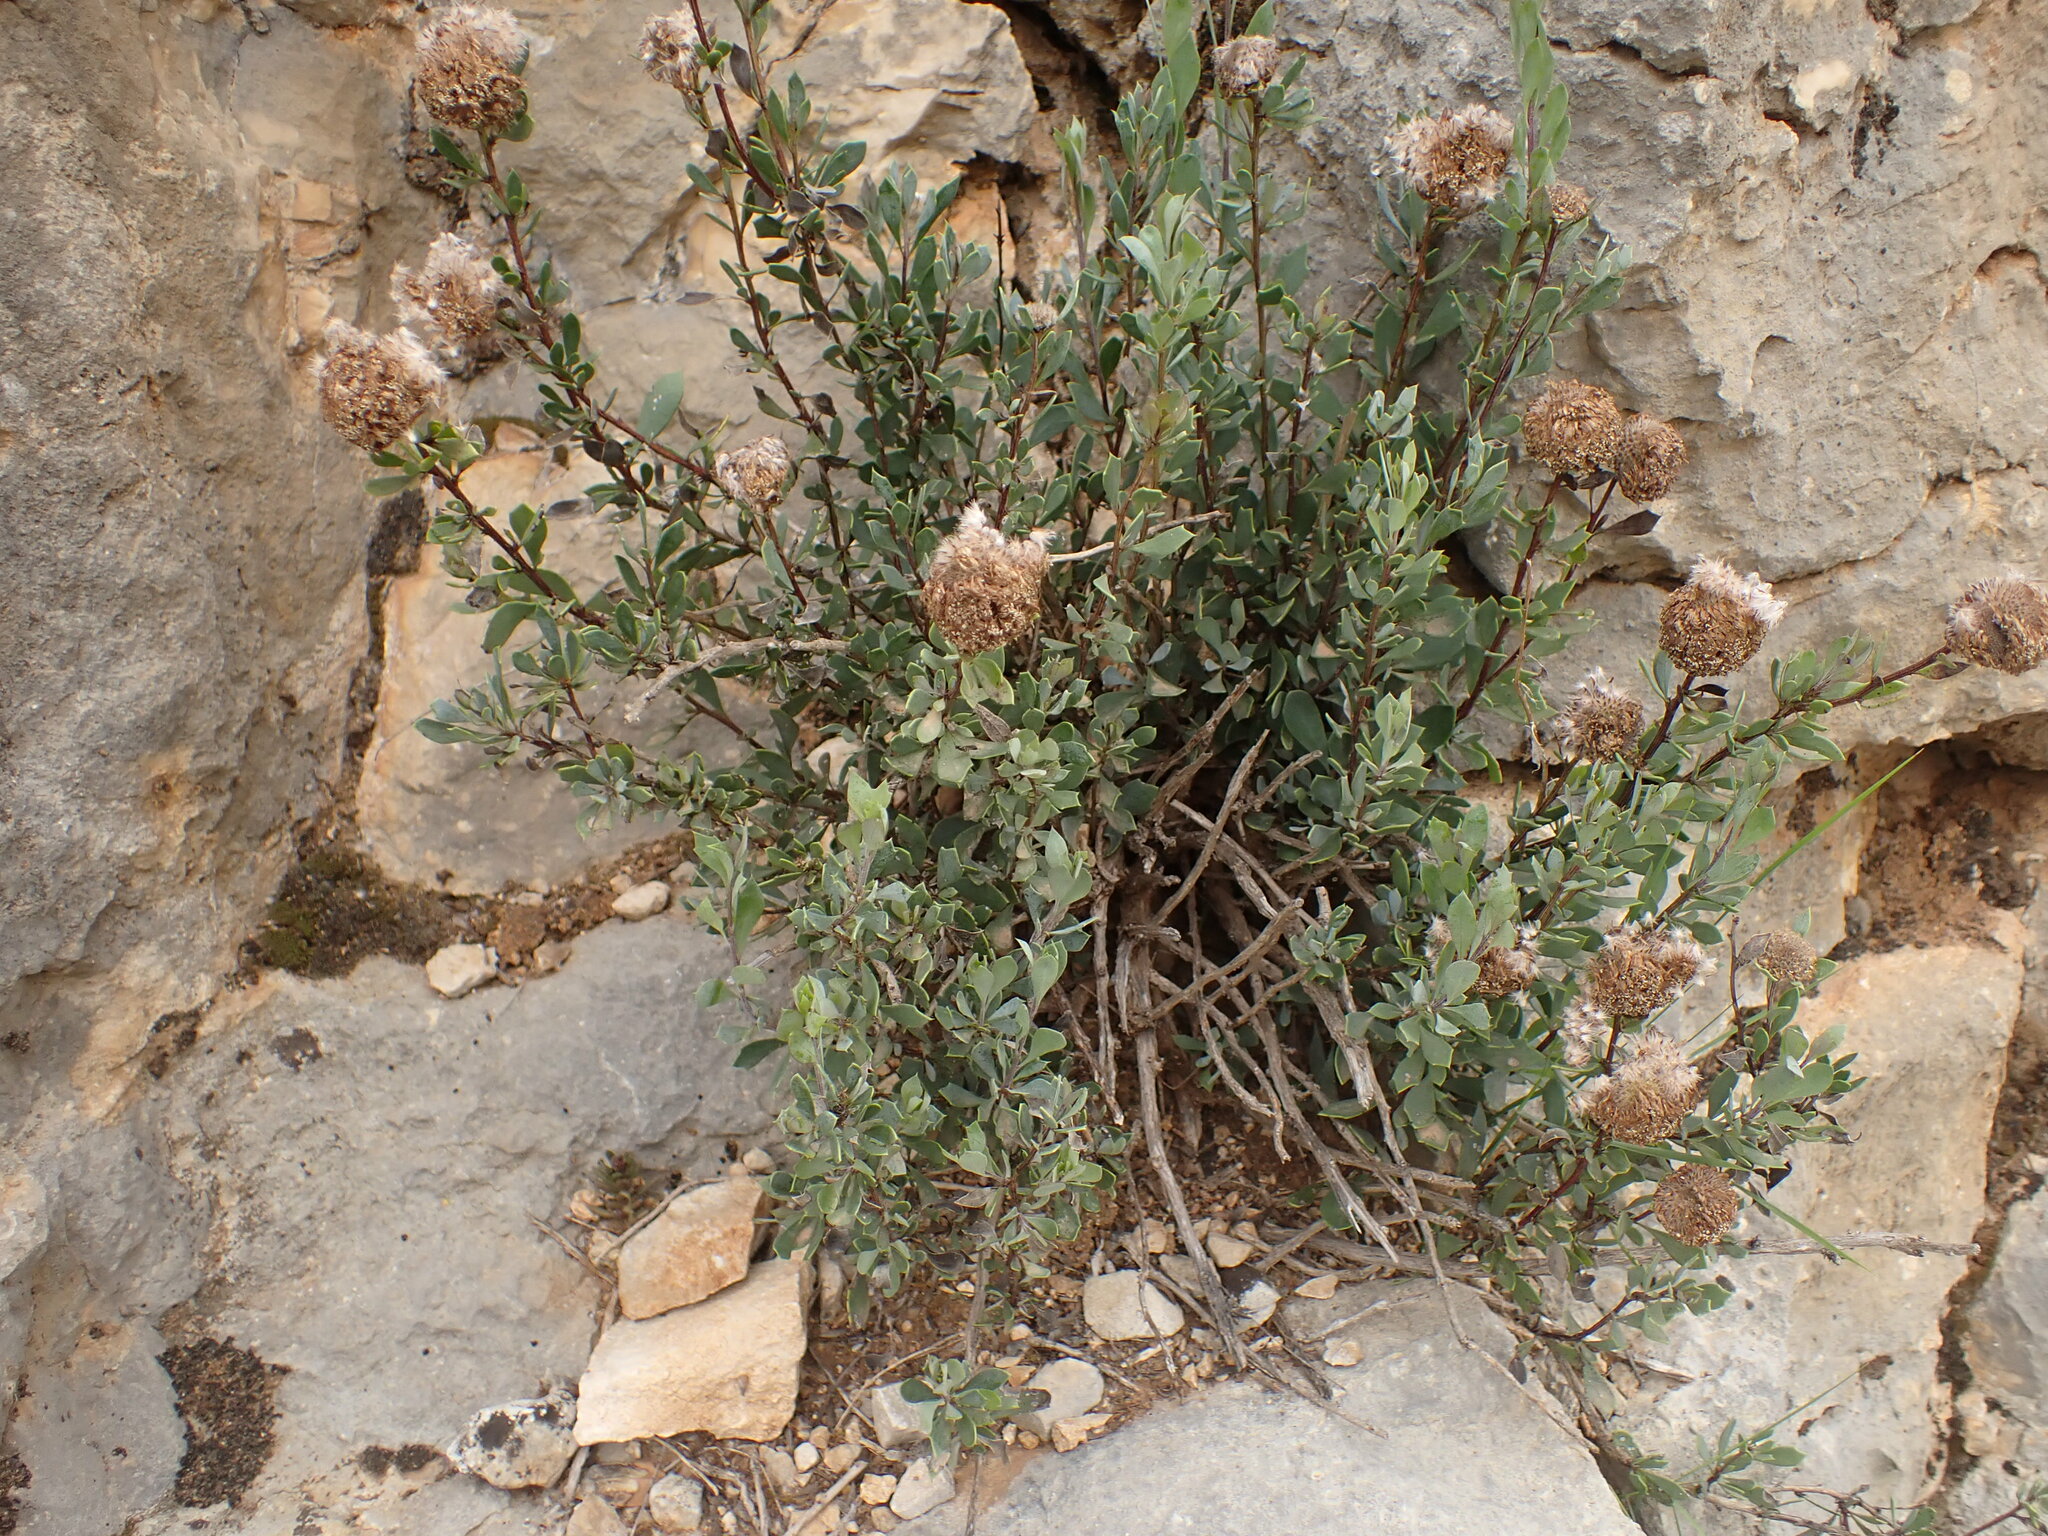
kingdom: Plantae
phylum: Tracheophyta
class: Magnoliopsida
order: Lamiales
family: Plantaginaceae
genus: Globularia
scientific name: Globularia alypum
